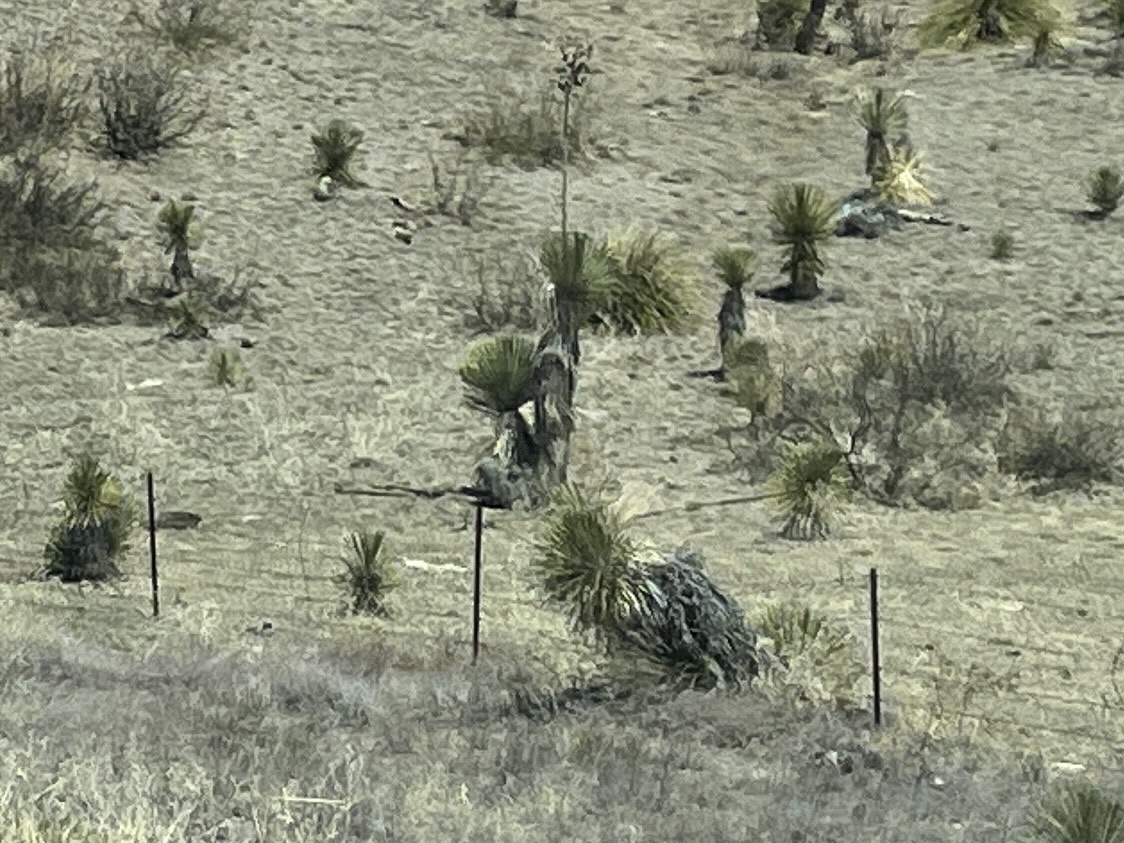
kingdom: Plantae
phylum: Tracheophyta
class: Liliopsida
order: Asparagales
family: Asparagaceae
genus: Yucca
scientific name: Yucca elata
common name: Palmella
